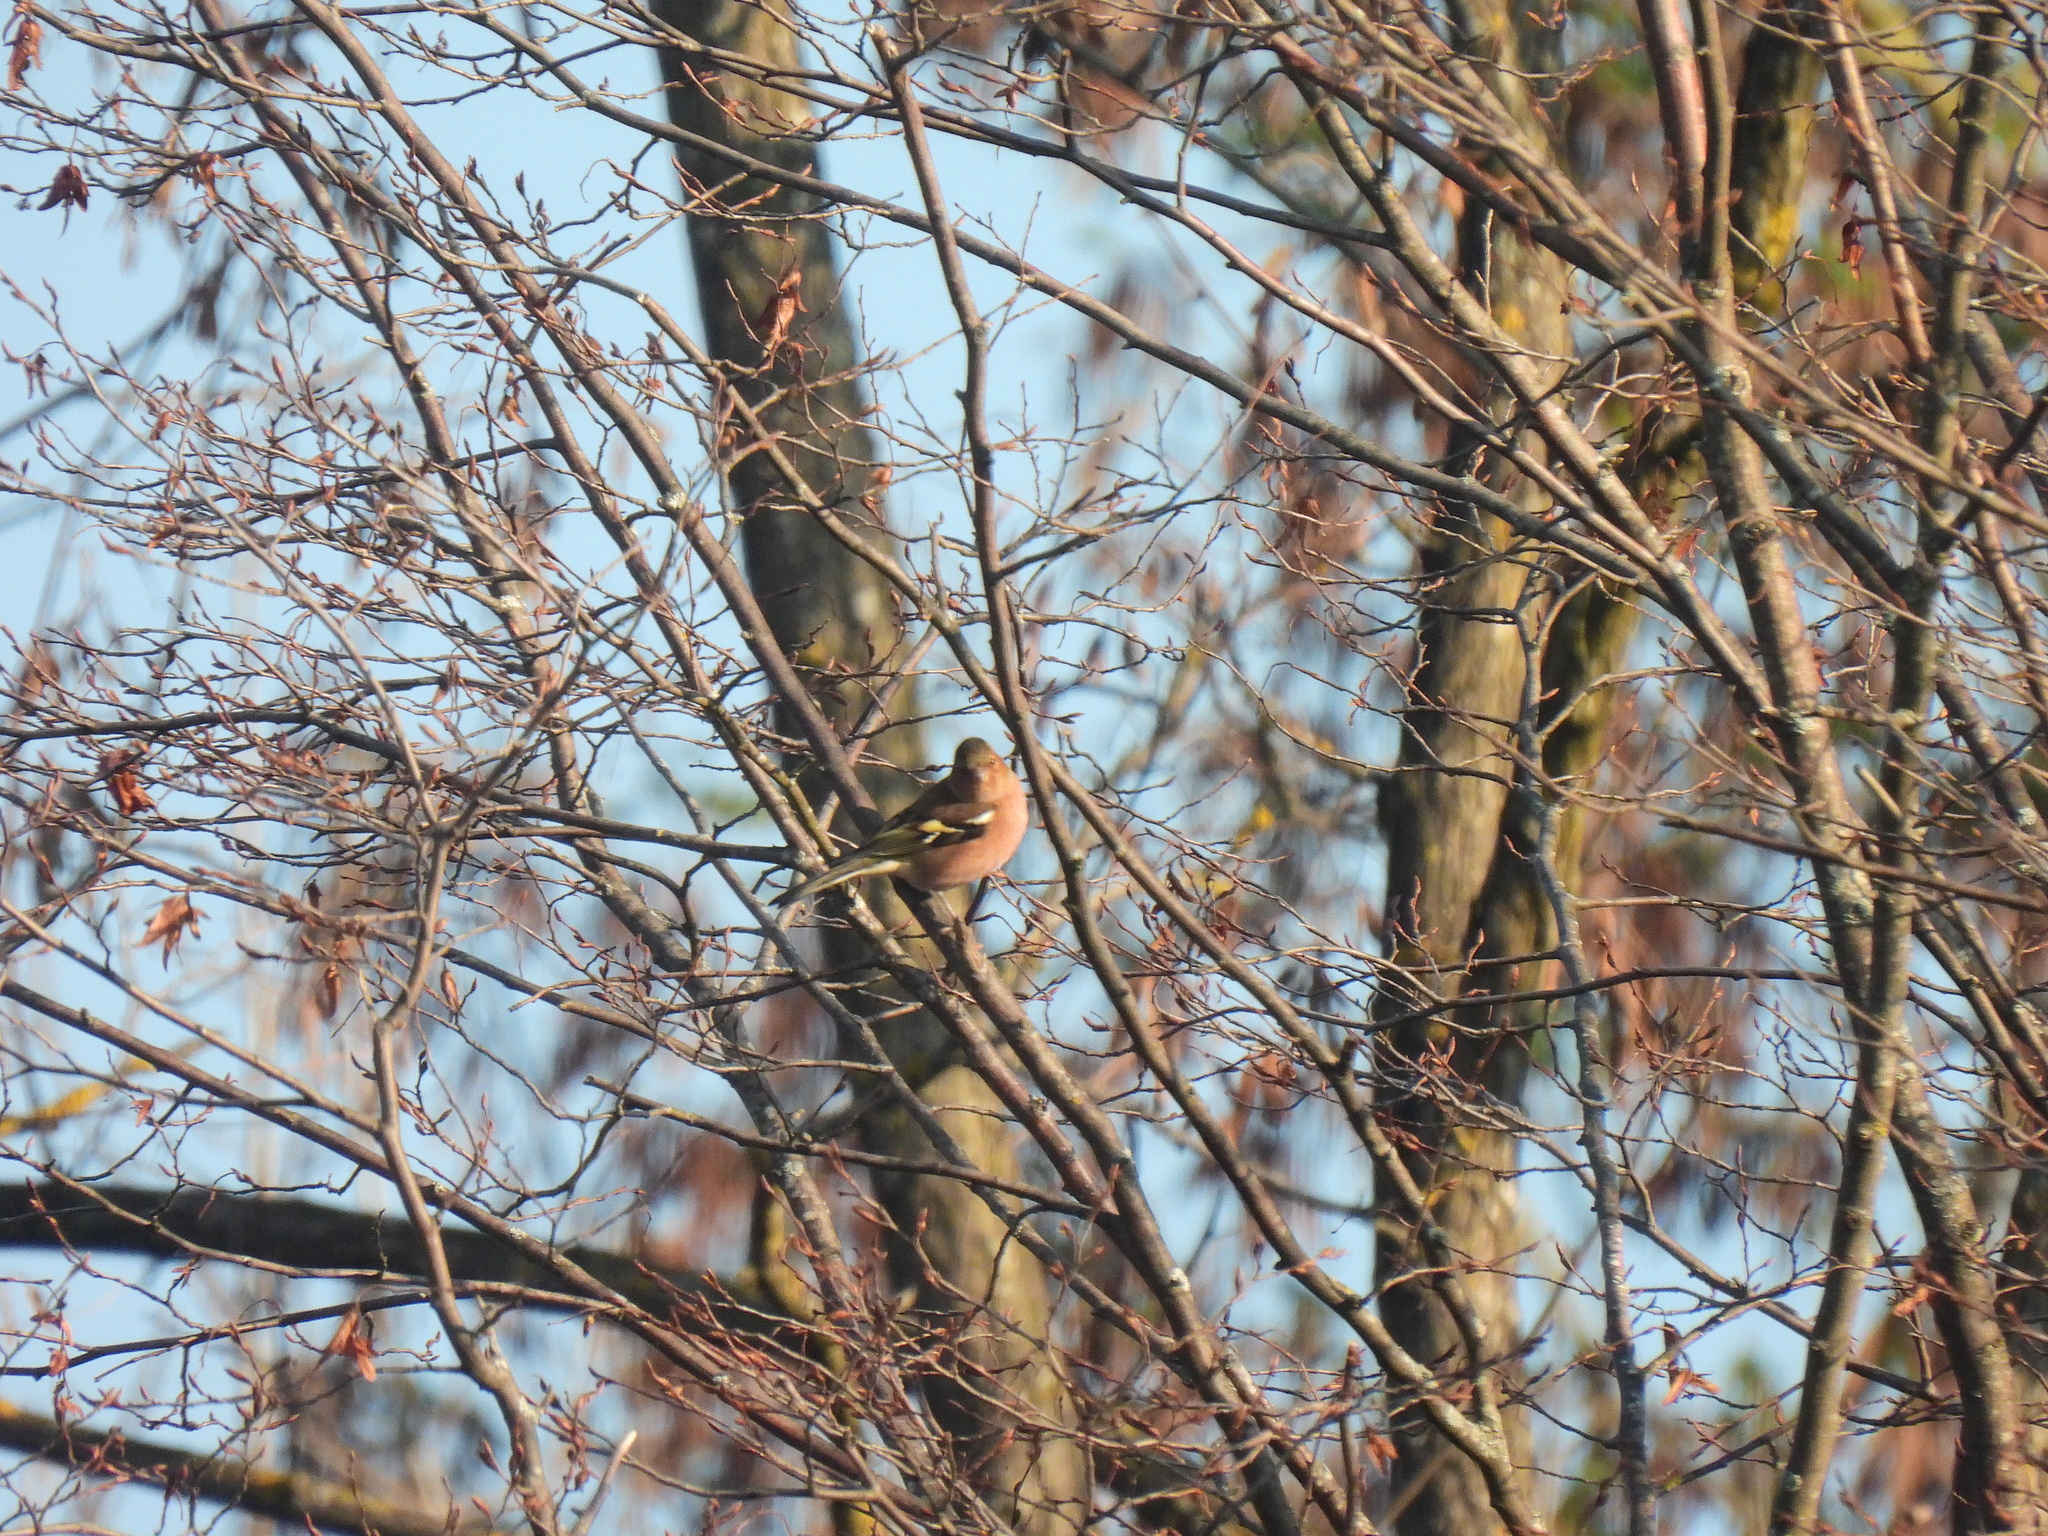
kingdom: Animalia
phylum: Chordata
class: Aves
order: Passeriformes
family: Fringillidae
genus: Fringilla
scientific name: Fringilla coelebs
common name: Common chaffinch
